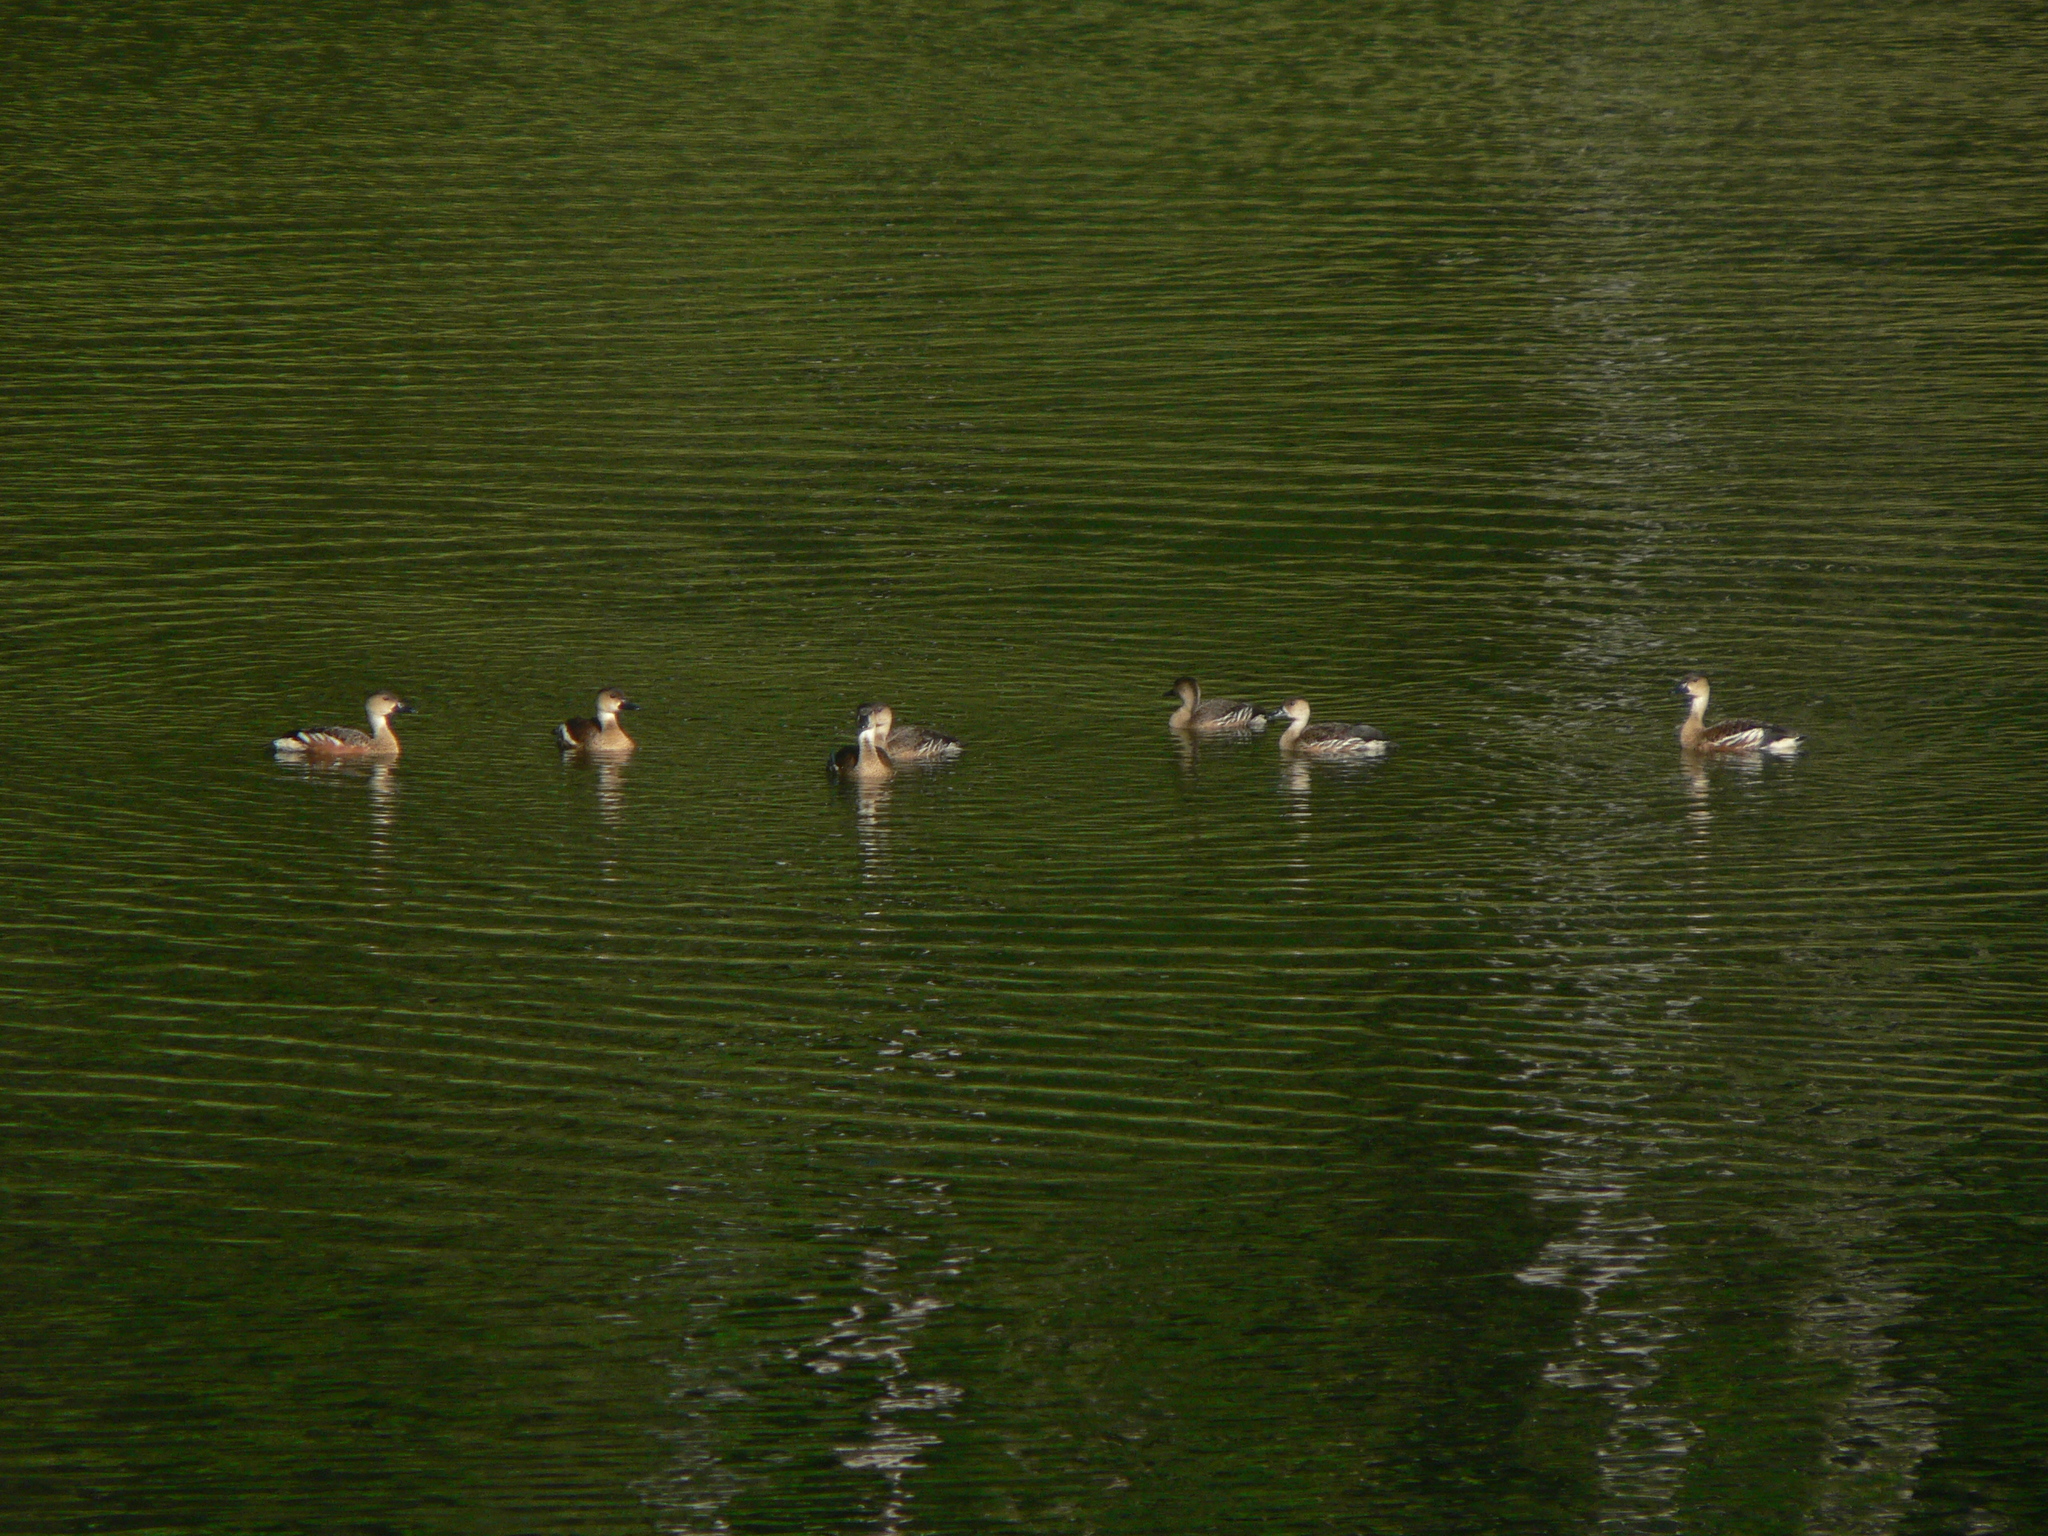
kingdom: Animalia
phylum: Chordata
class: Aves
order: Anseriformes
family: Anatidae
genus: Dendrocygna
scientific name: Dendrocygna arcuata
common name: Wandering whistling-duck
